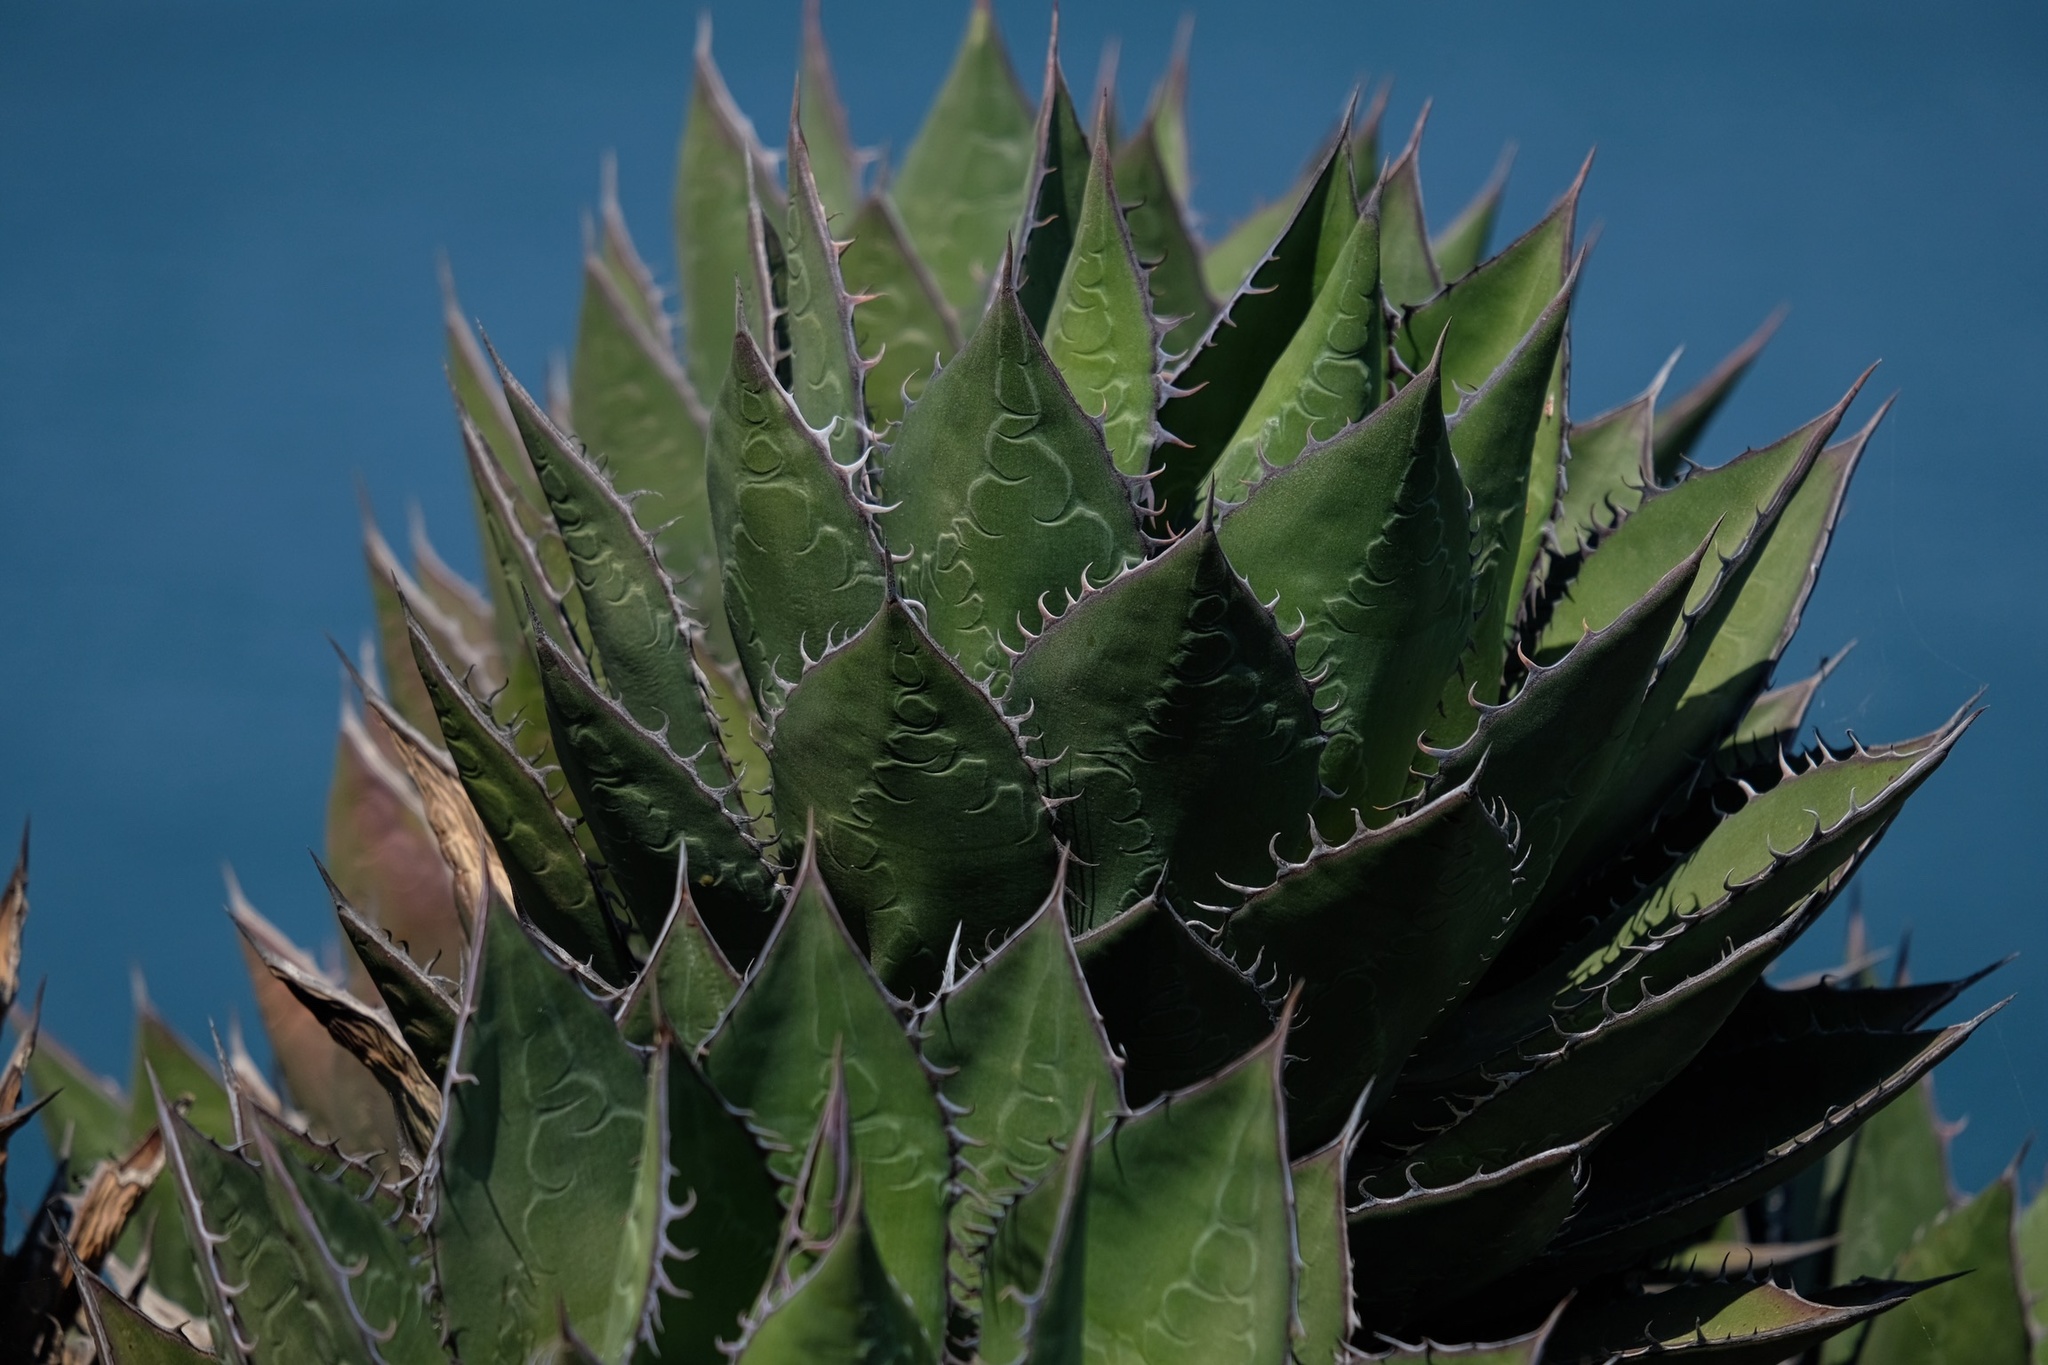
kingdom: Plantae
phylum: Tracheophyta
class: Liliopsida
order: Asparagales
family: Asparagaceae
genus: Agave
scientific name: Agave shawii
